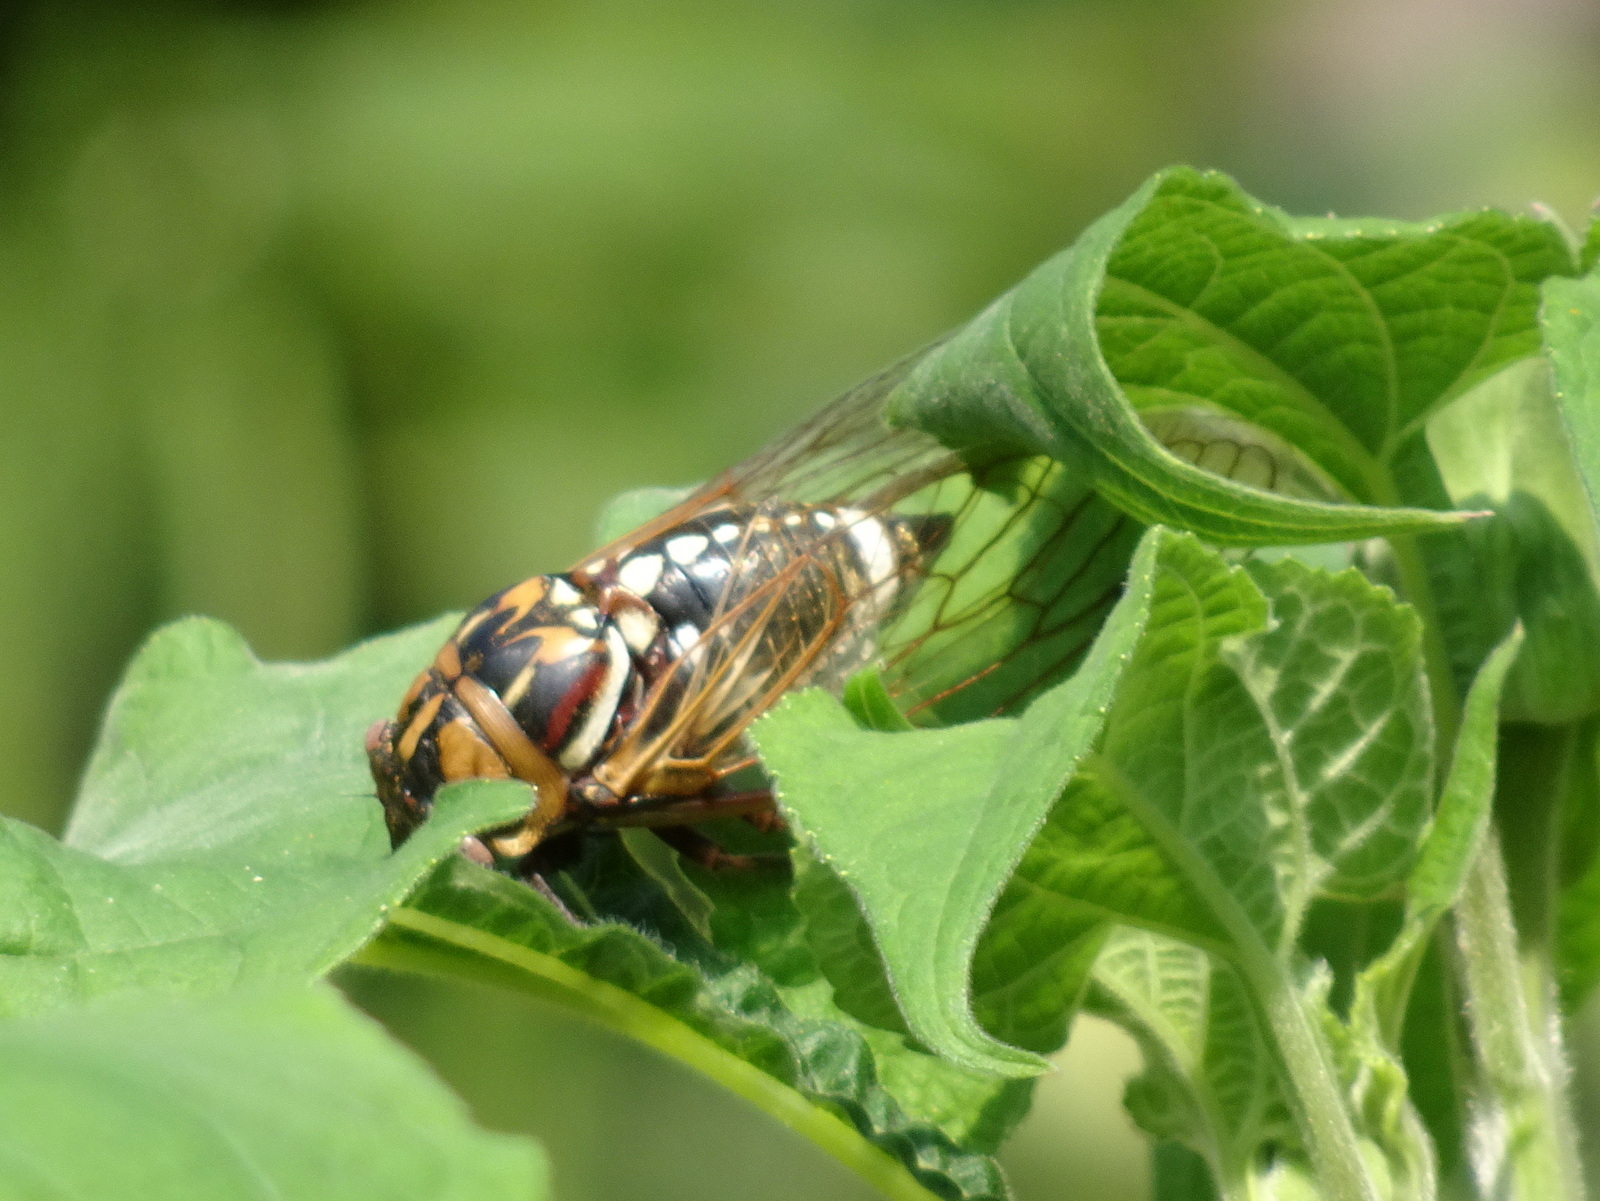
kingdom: Animalia
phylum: Arthropoda
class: Insecta
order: Hemiptera
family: Cicadidae
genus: Megatibicen
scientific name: Megatibicen dorsatus
